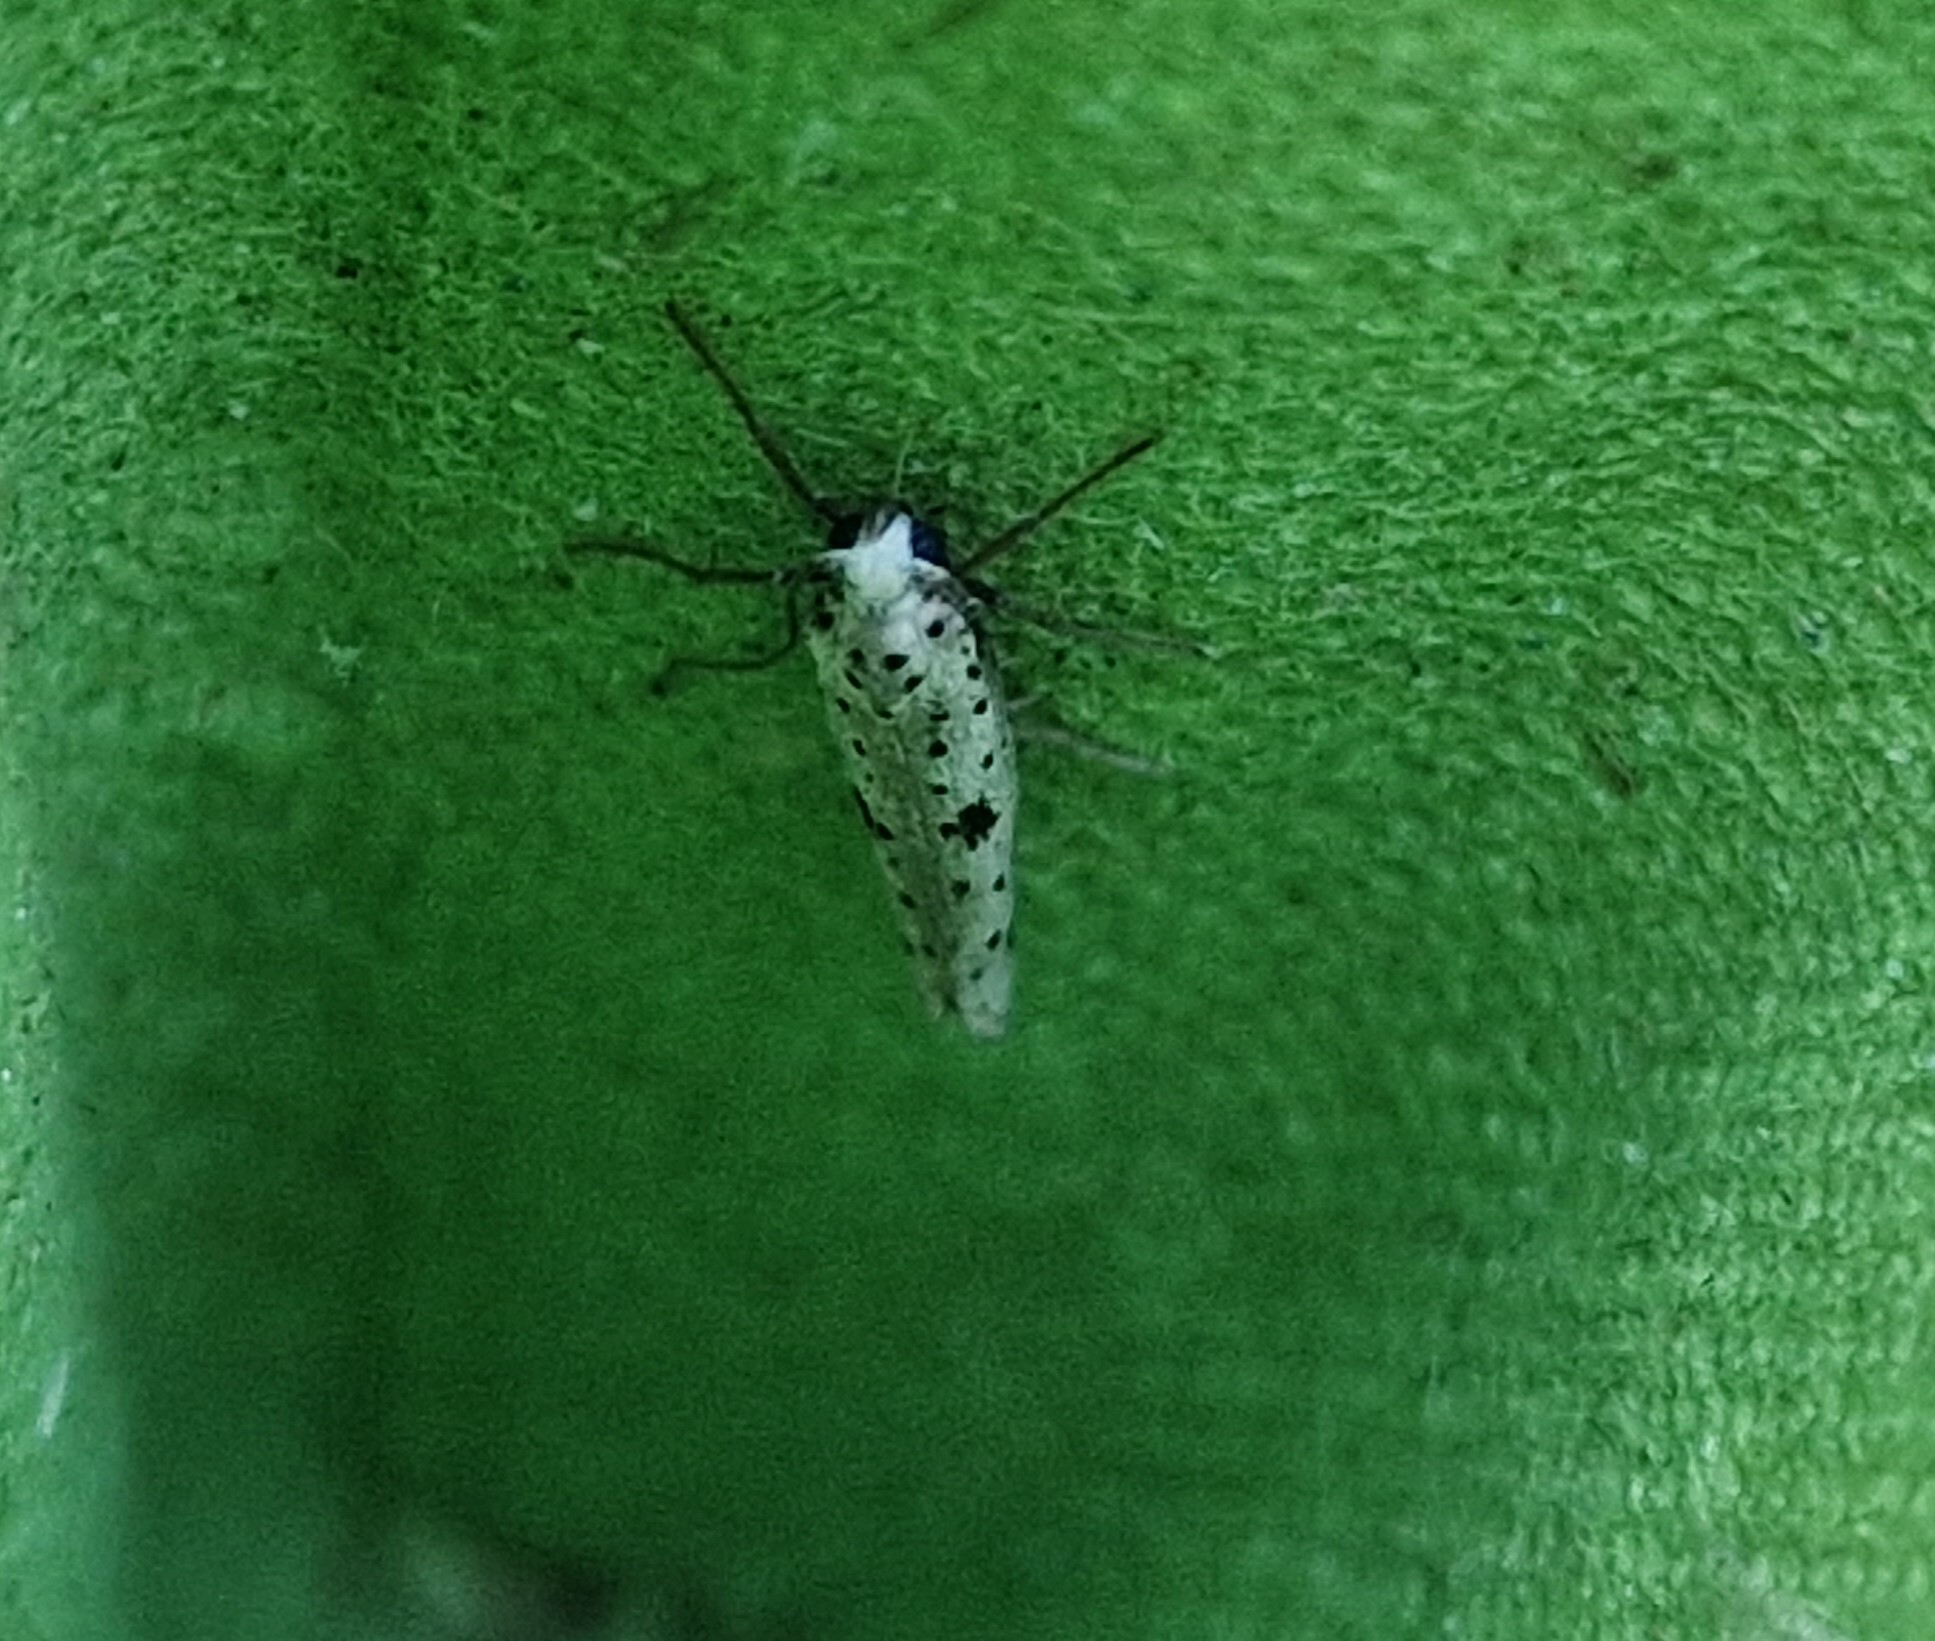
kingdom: Animalia
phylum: Arthropoda
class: Insecta
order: Lepidoptera
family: Yponomeutidae
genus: Yponomeuta
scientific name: Yponomeuta plumbella
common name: Black-tipped ermine
